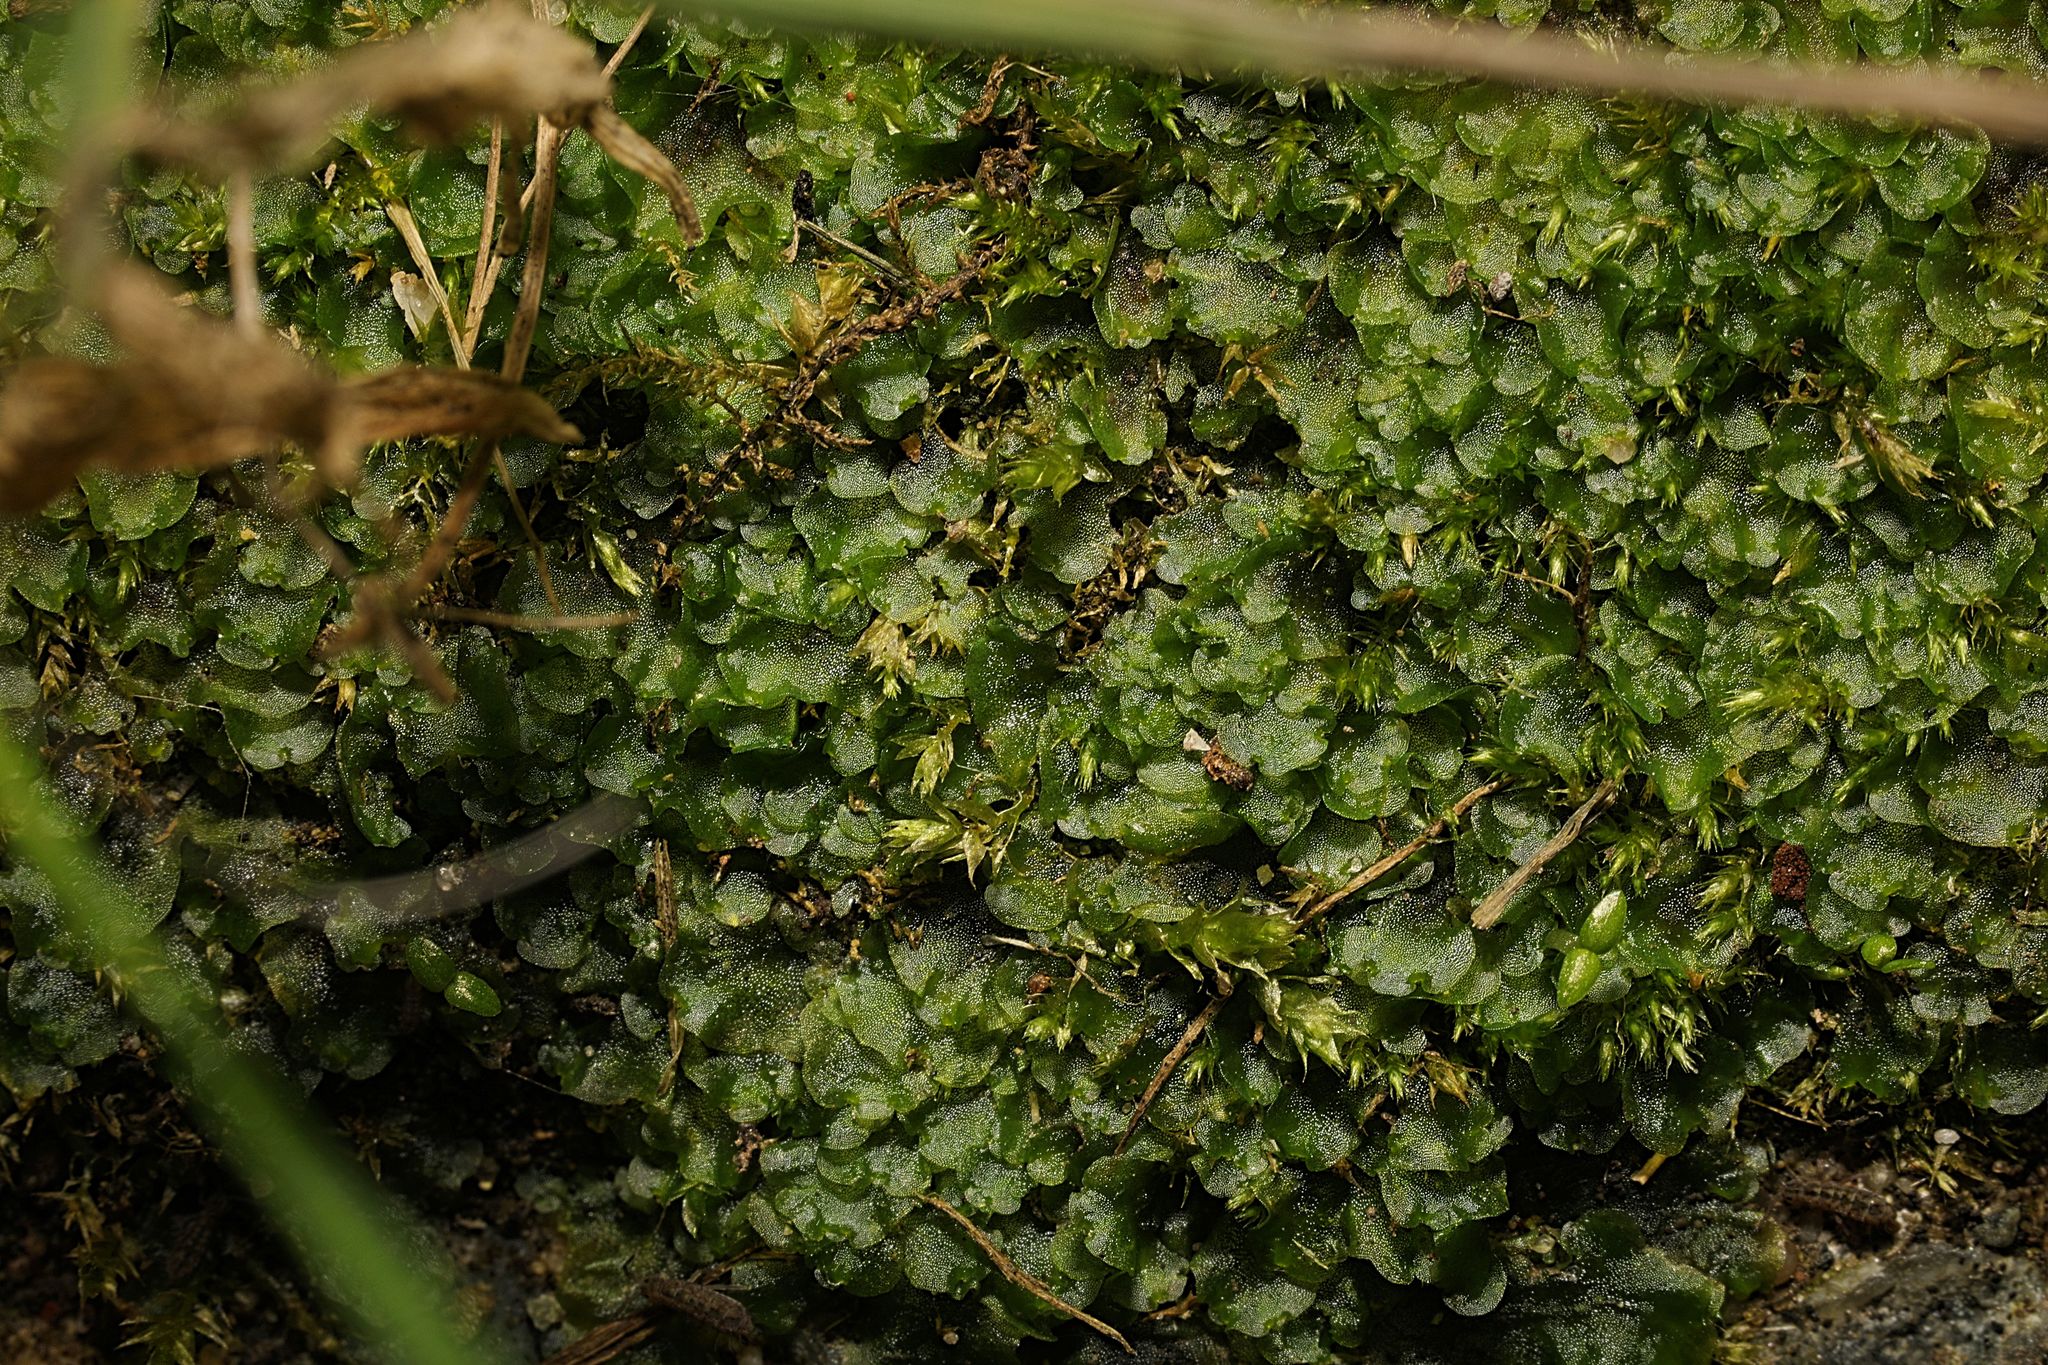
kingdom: Plantae
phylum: Marchantiophyta
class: Jungermanniopsida
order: Pelliales
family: Pelliaceae
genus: Pellia
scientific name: Pellia neesiana
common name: Nees  pellia
